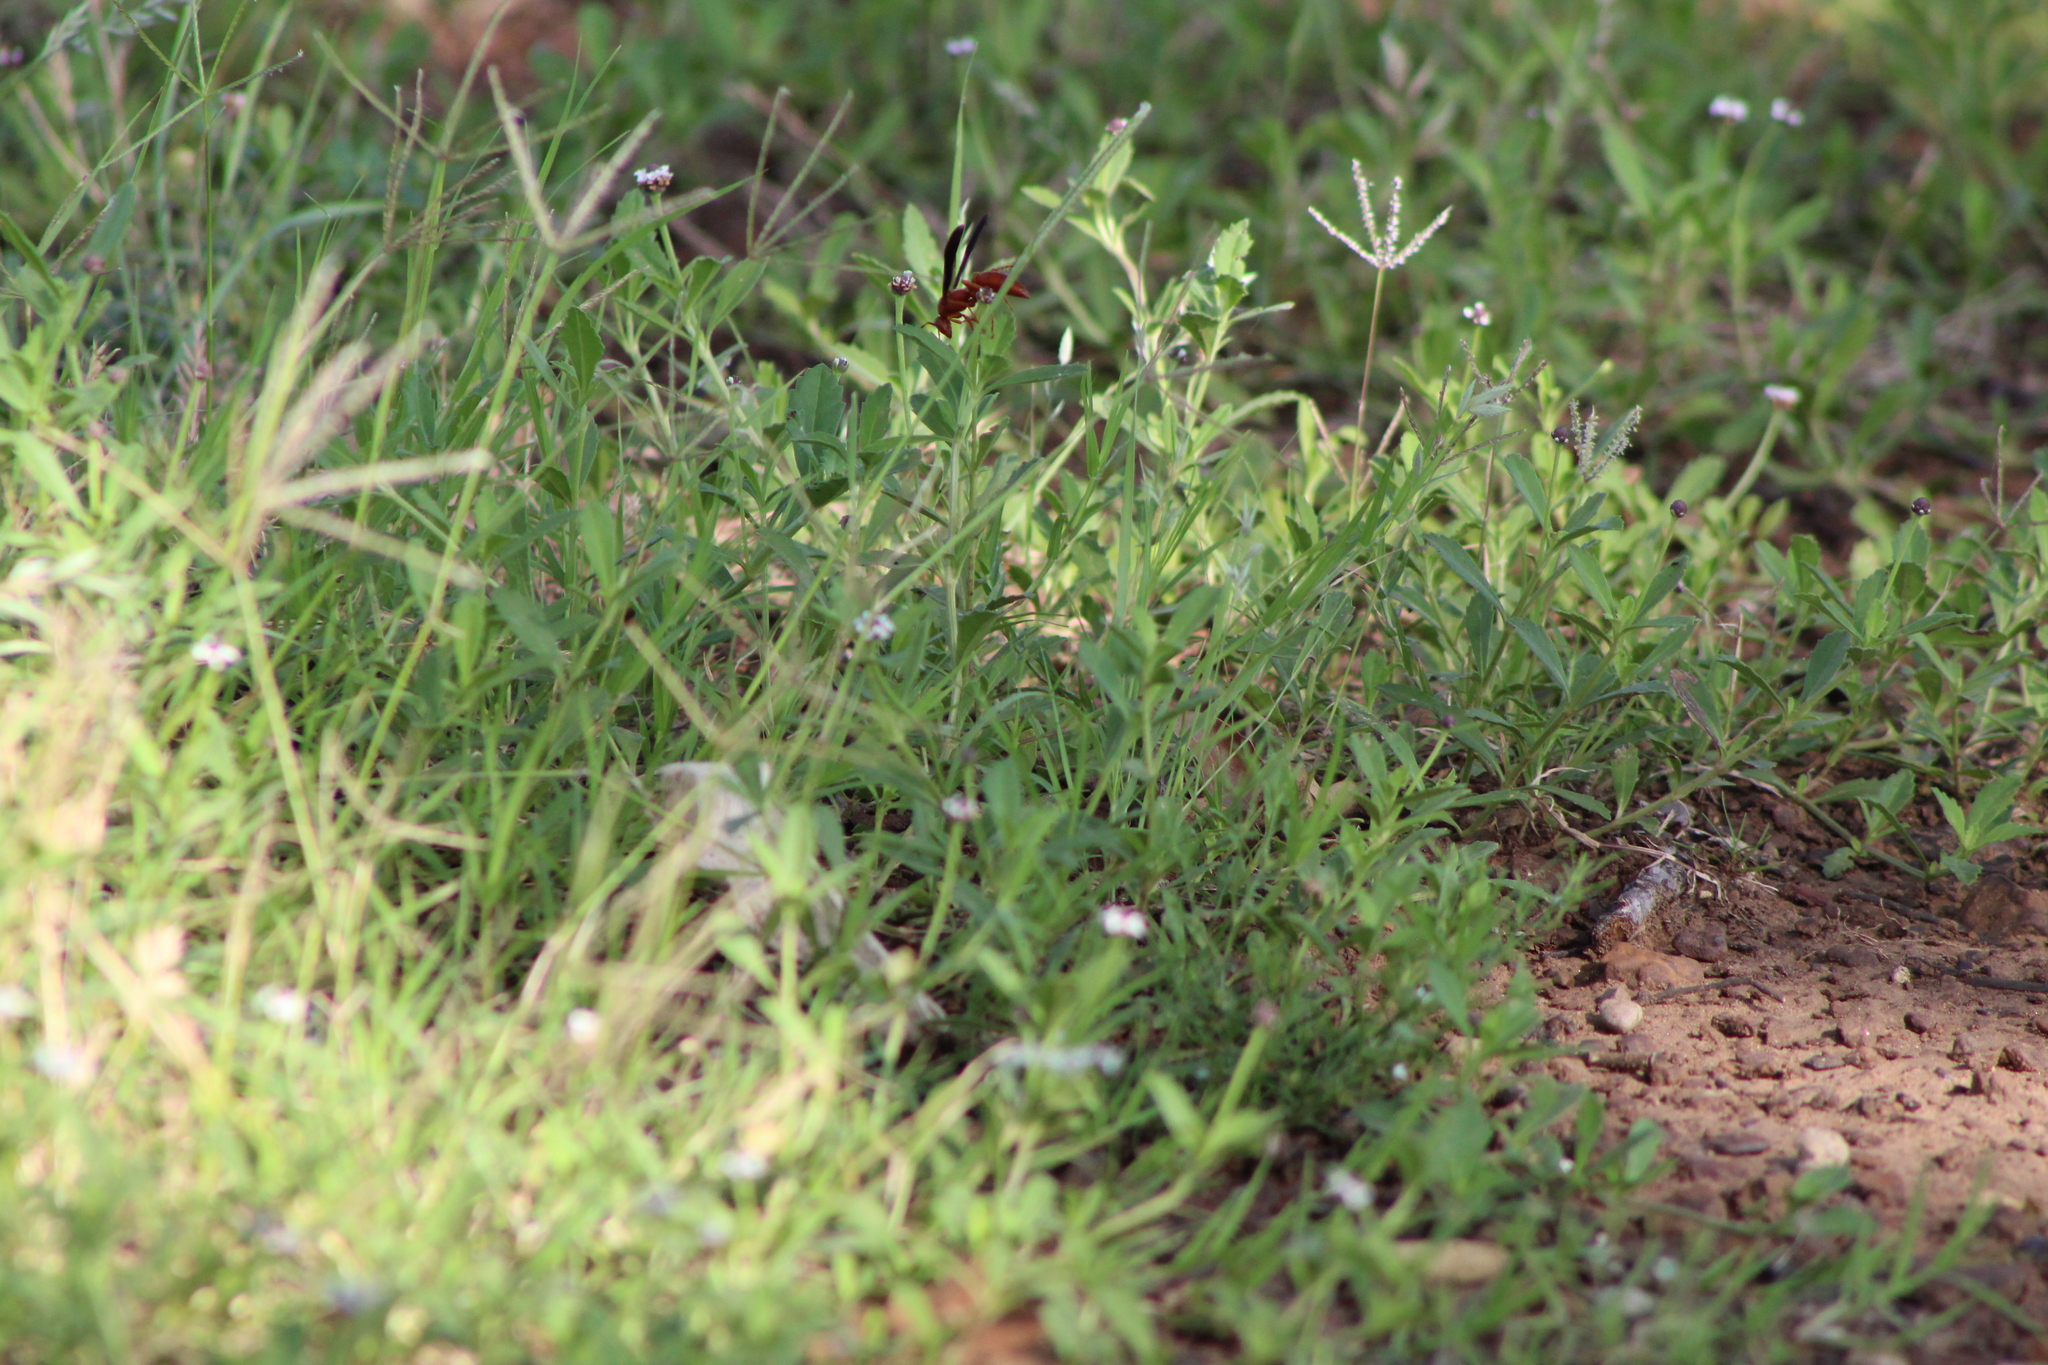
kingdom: Animalia
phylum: Arthropoda
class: Insecta
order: Hymenoptera
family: Vespidae
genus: Fuscopolistes
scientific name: Fuscopolistes
